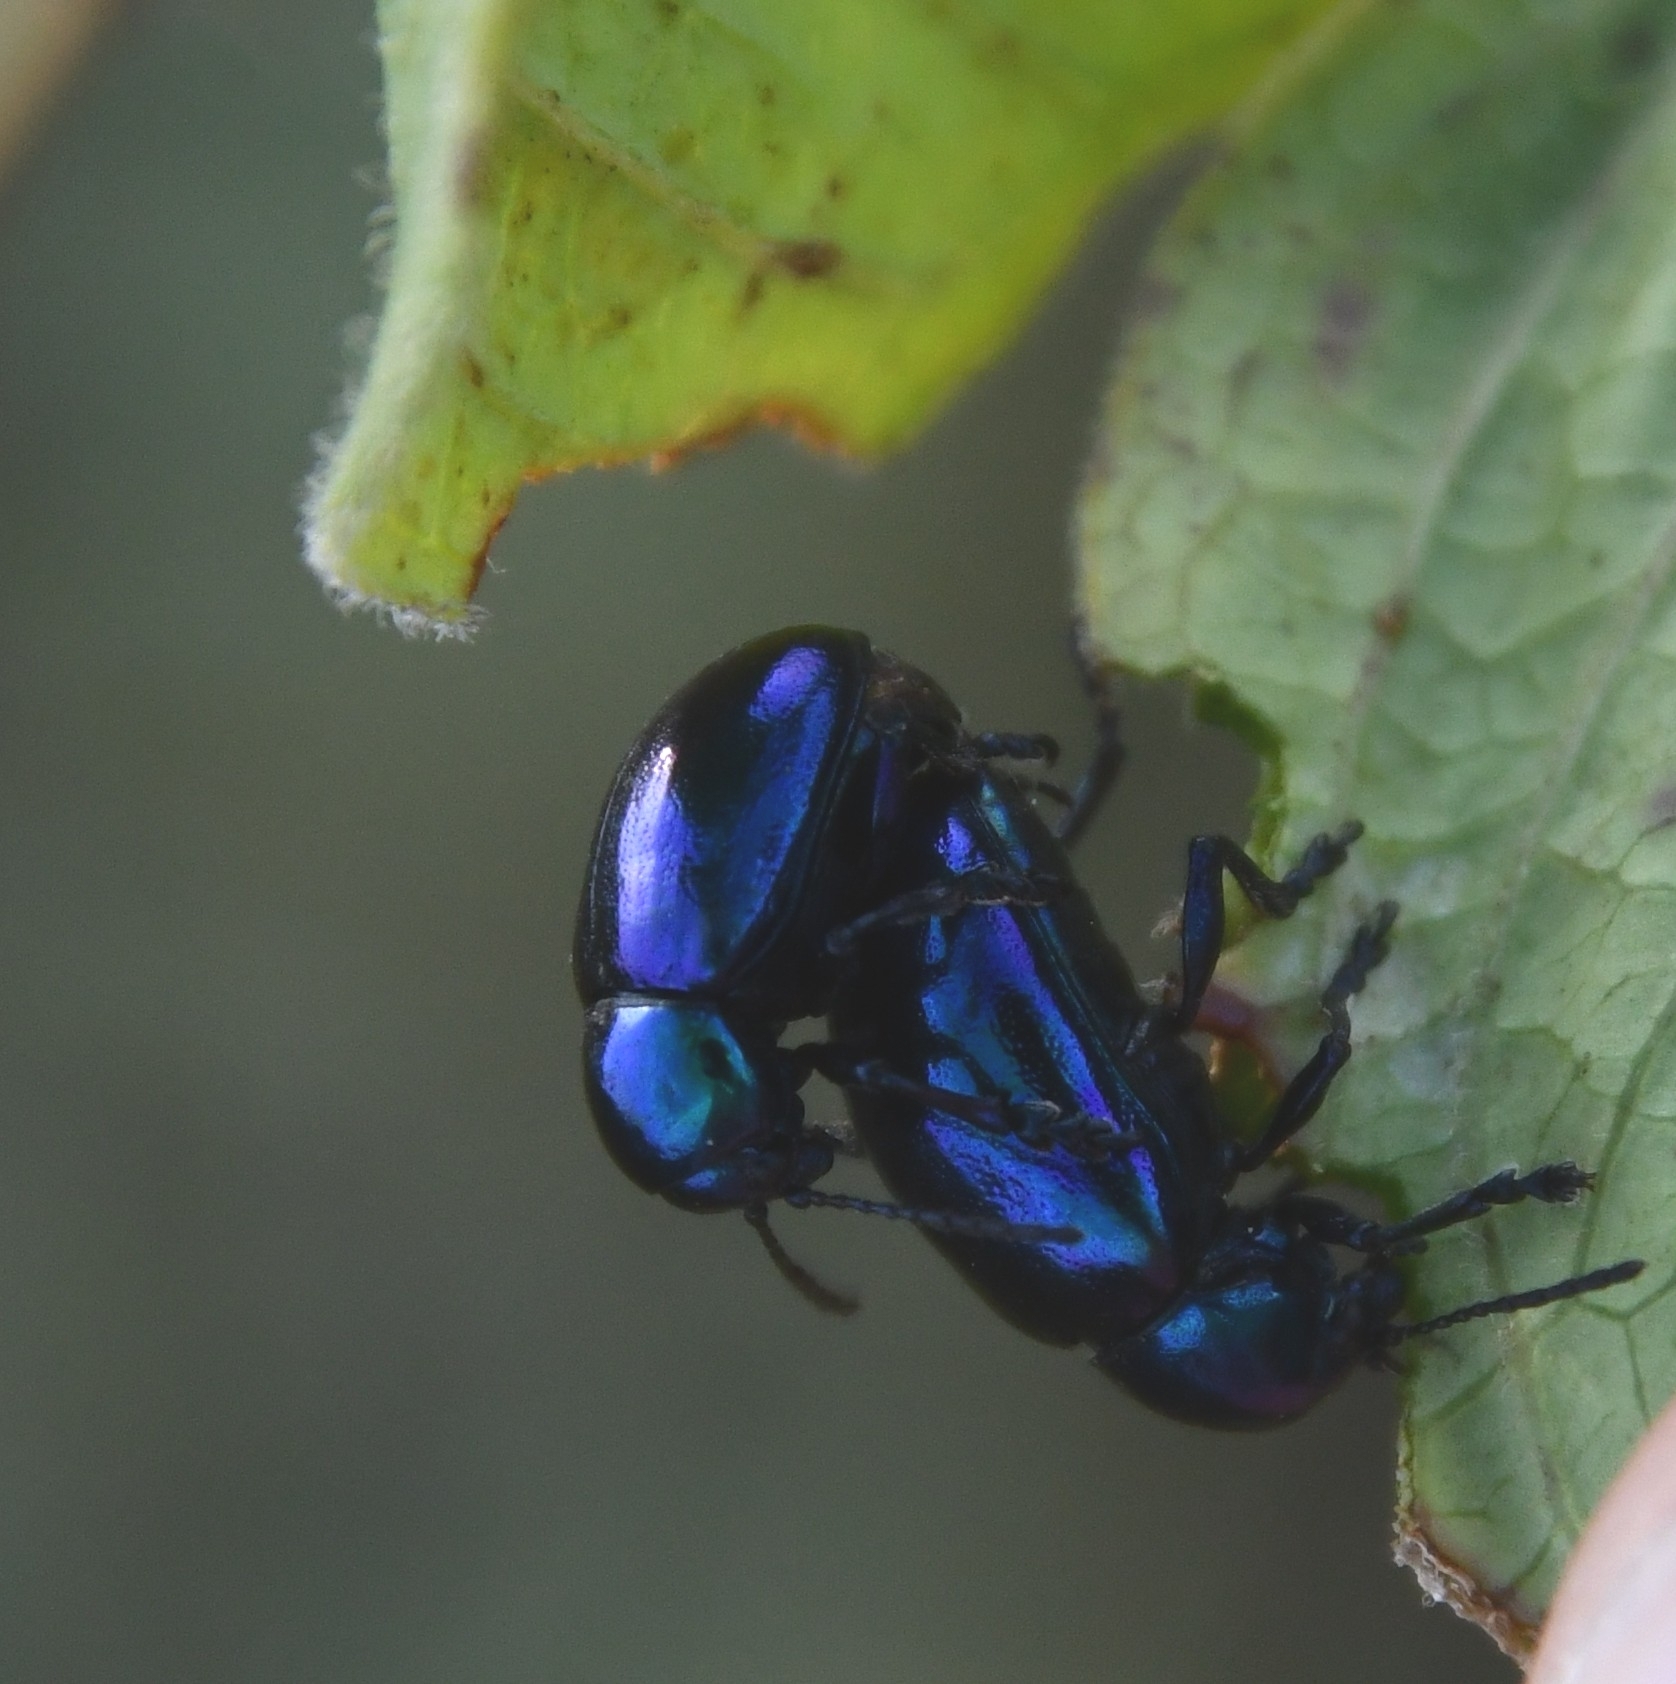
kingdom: Animalia
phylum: Arthropoda
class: Insecta
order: Coleoptera
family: Chrysomelidae
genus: Chrysochus
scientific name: Chrysochus asclepiadeus
